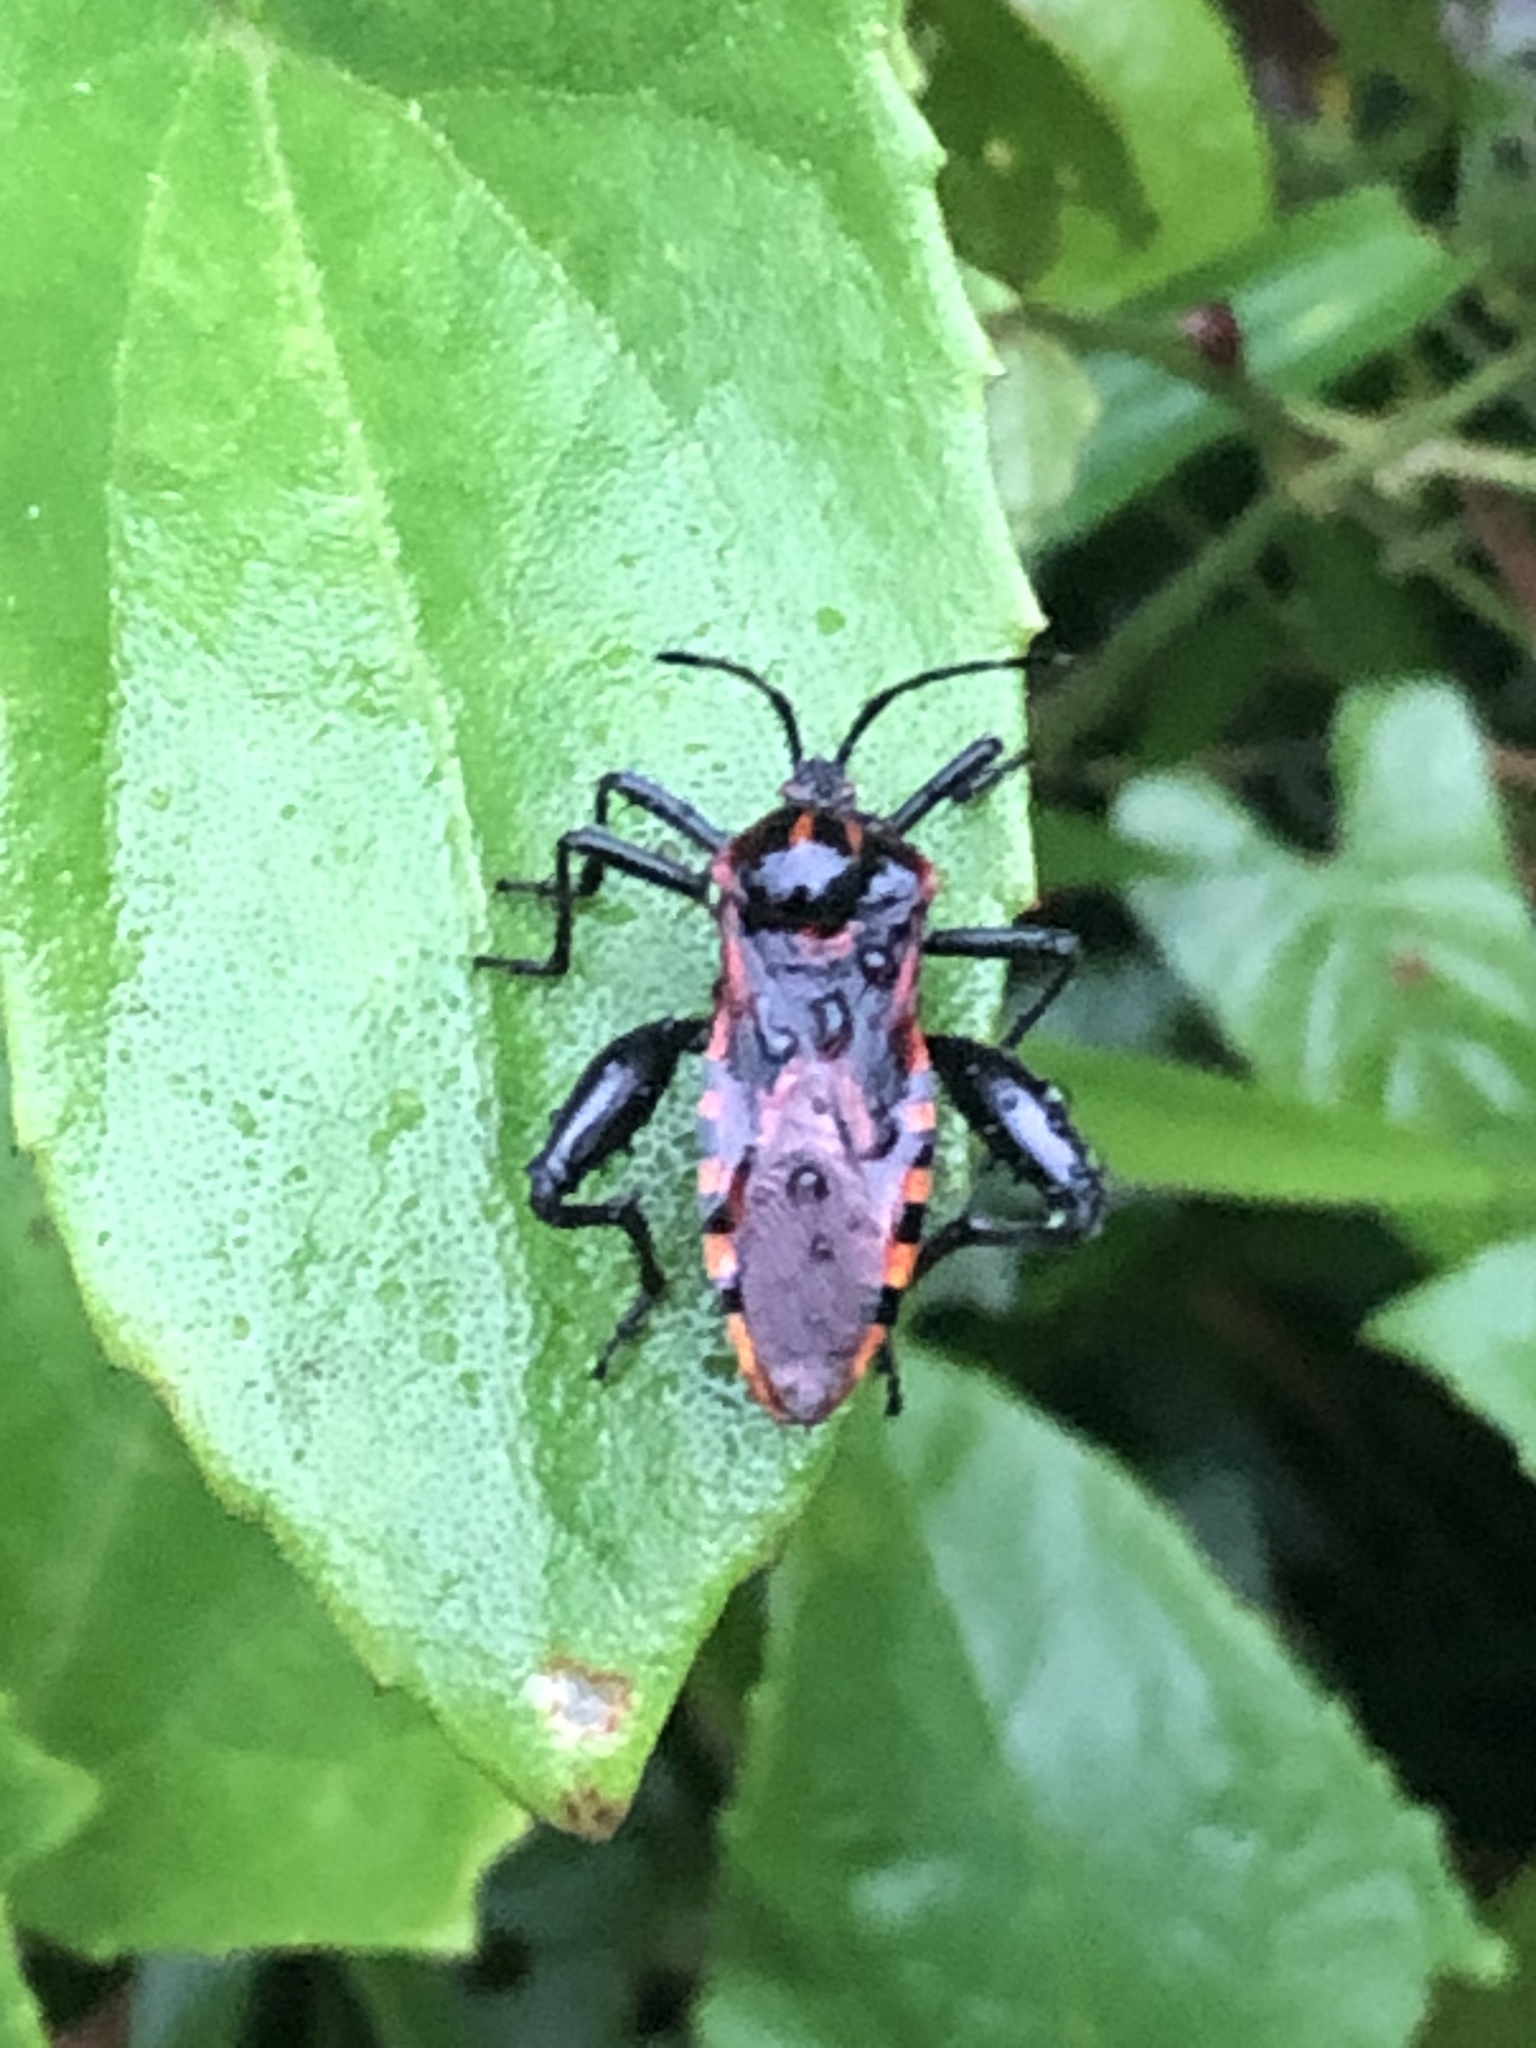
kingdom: Animalia
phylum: Arthropoda
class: Insecta
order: Hemiptera
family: Coreidae
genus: Piezogaster
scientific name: Piezogaster rubropictus
